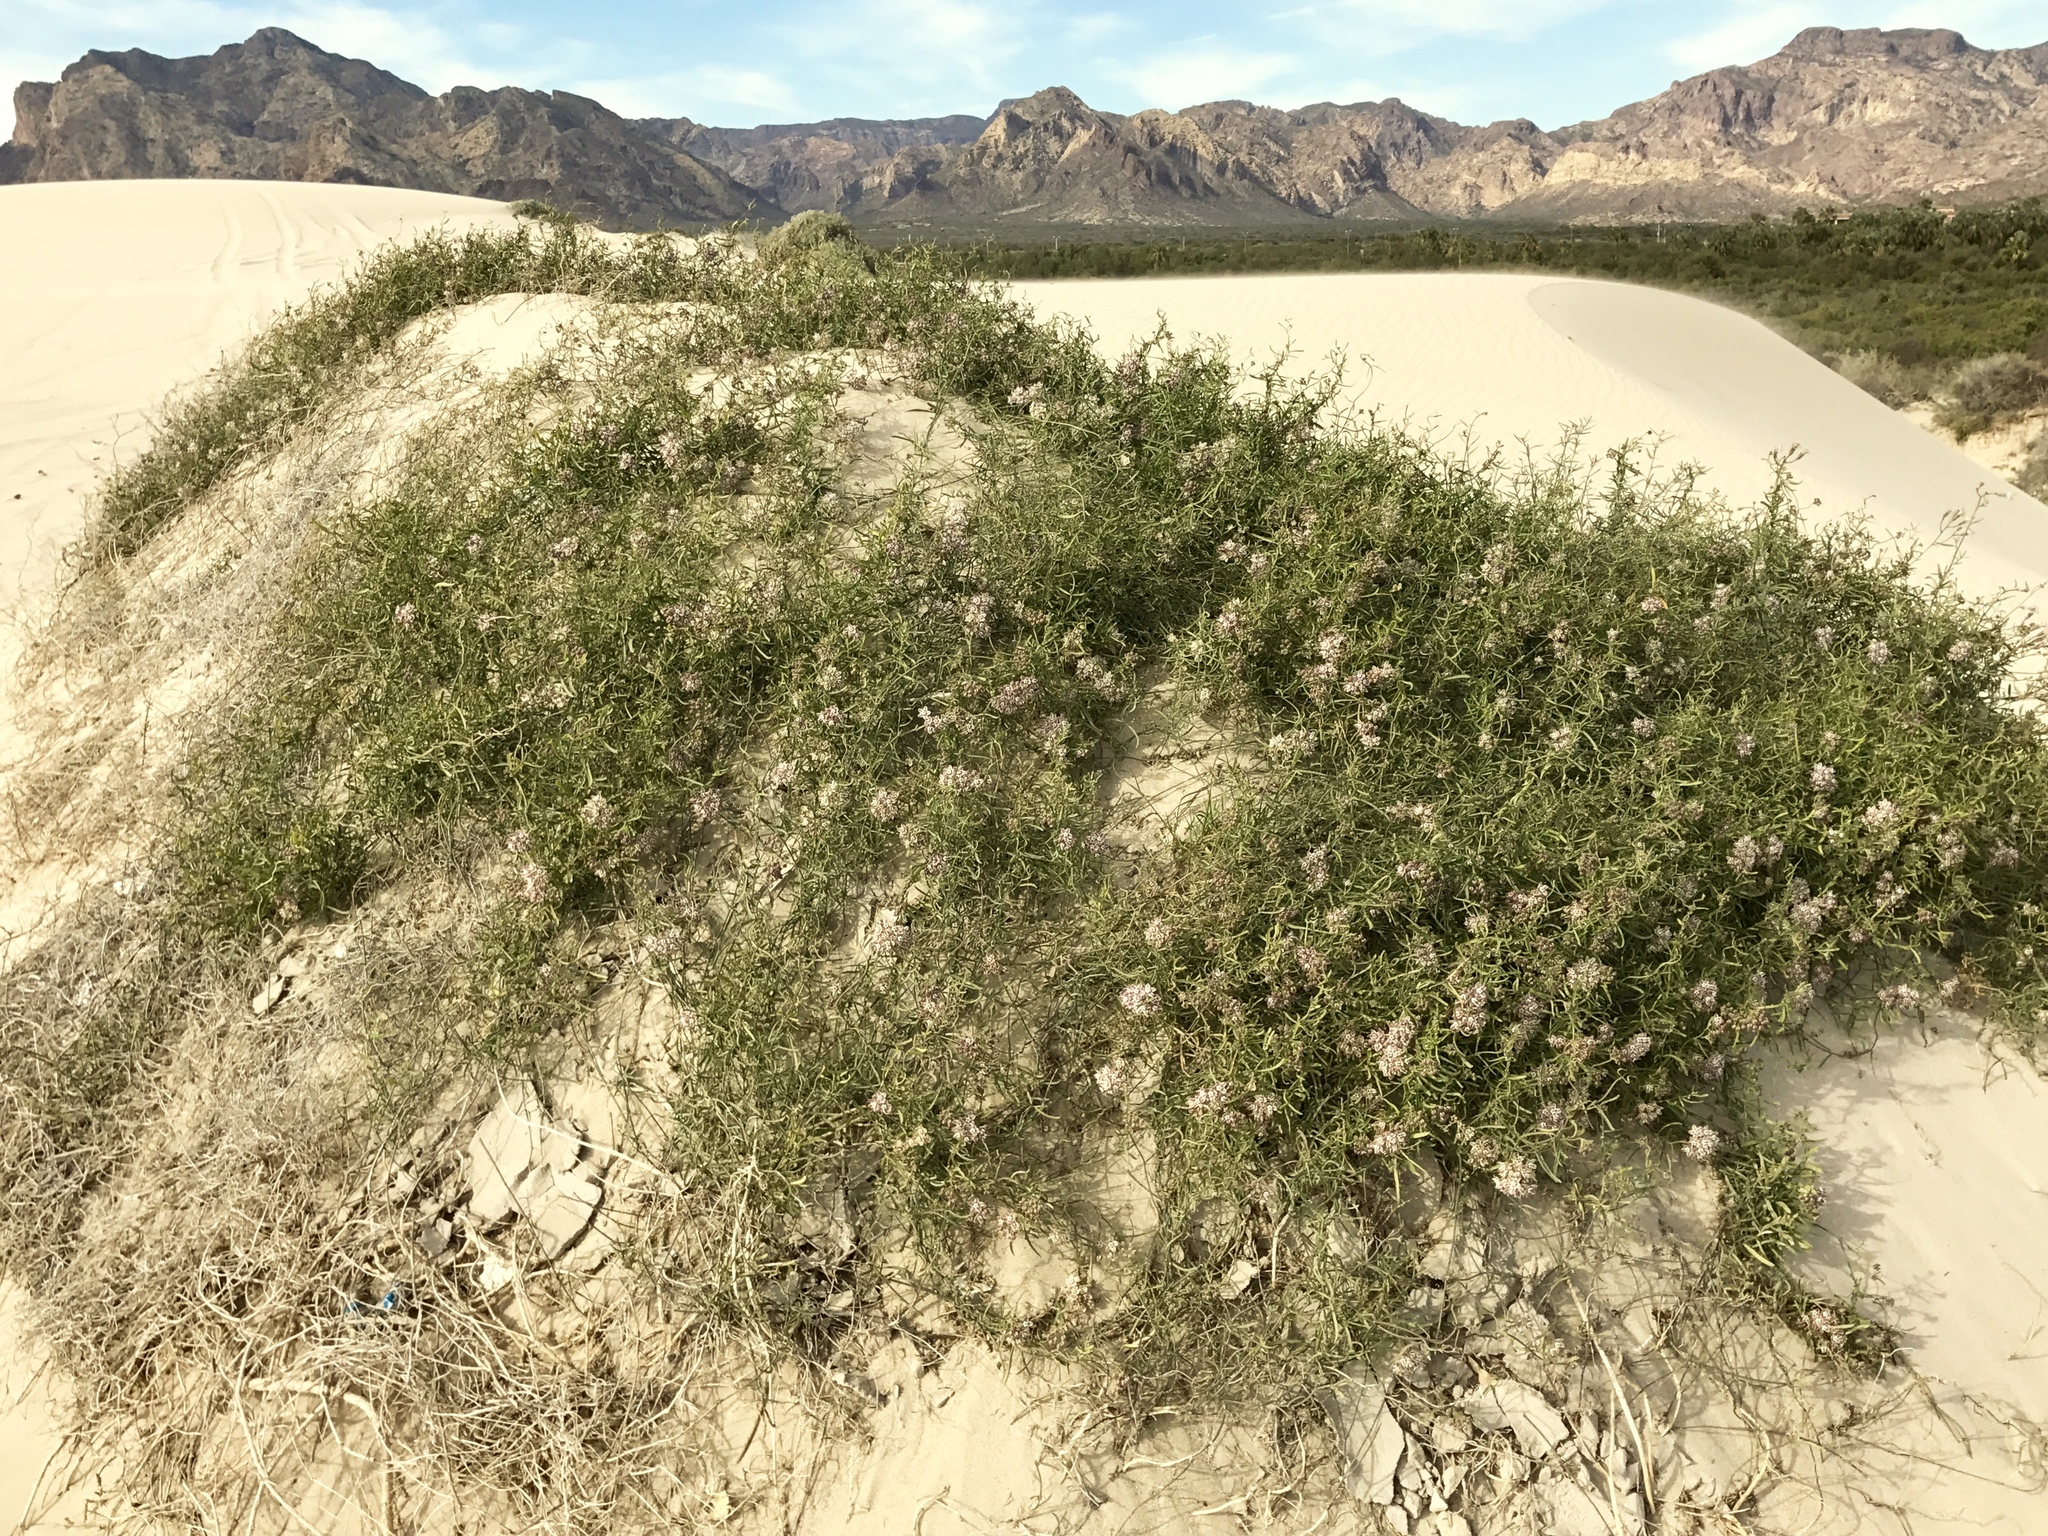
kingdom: Plantae
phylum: Tracheophyta
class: Magnoliopsida
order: Gentianales
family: Apocynaceae
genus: Funastrum
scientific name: Funastrum heterophyllum
